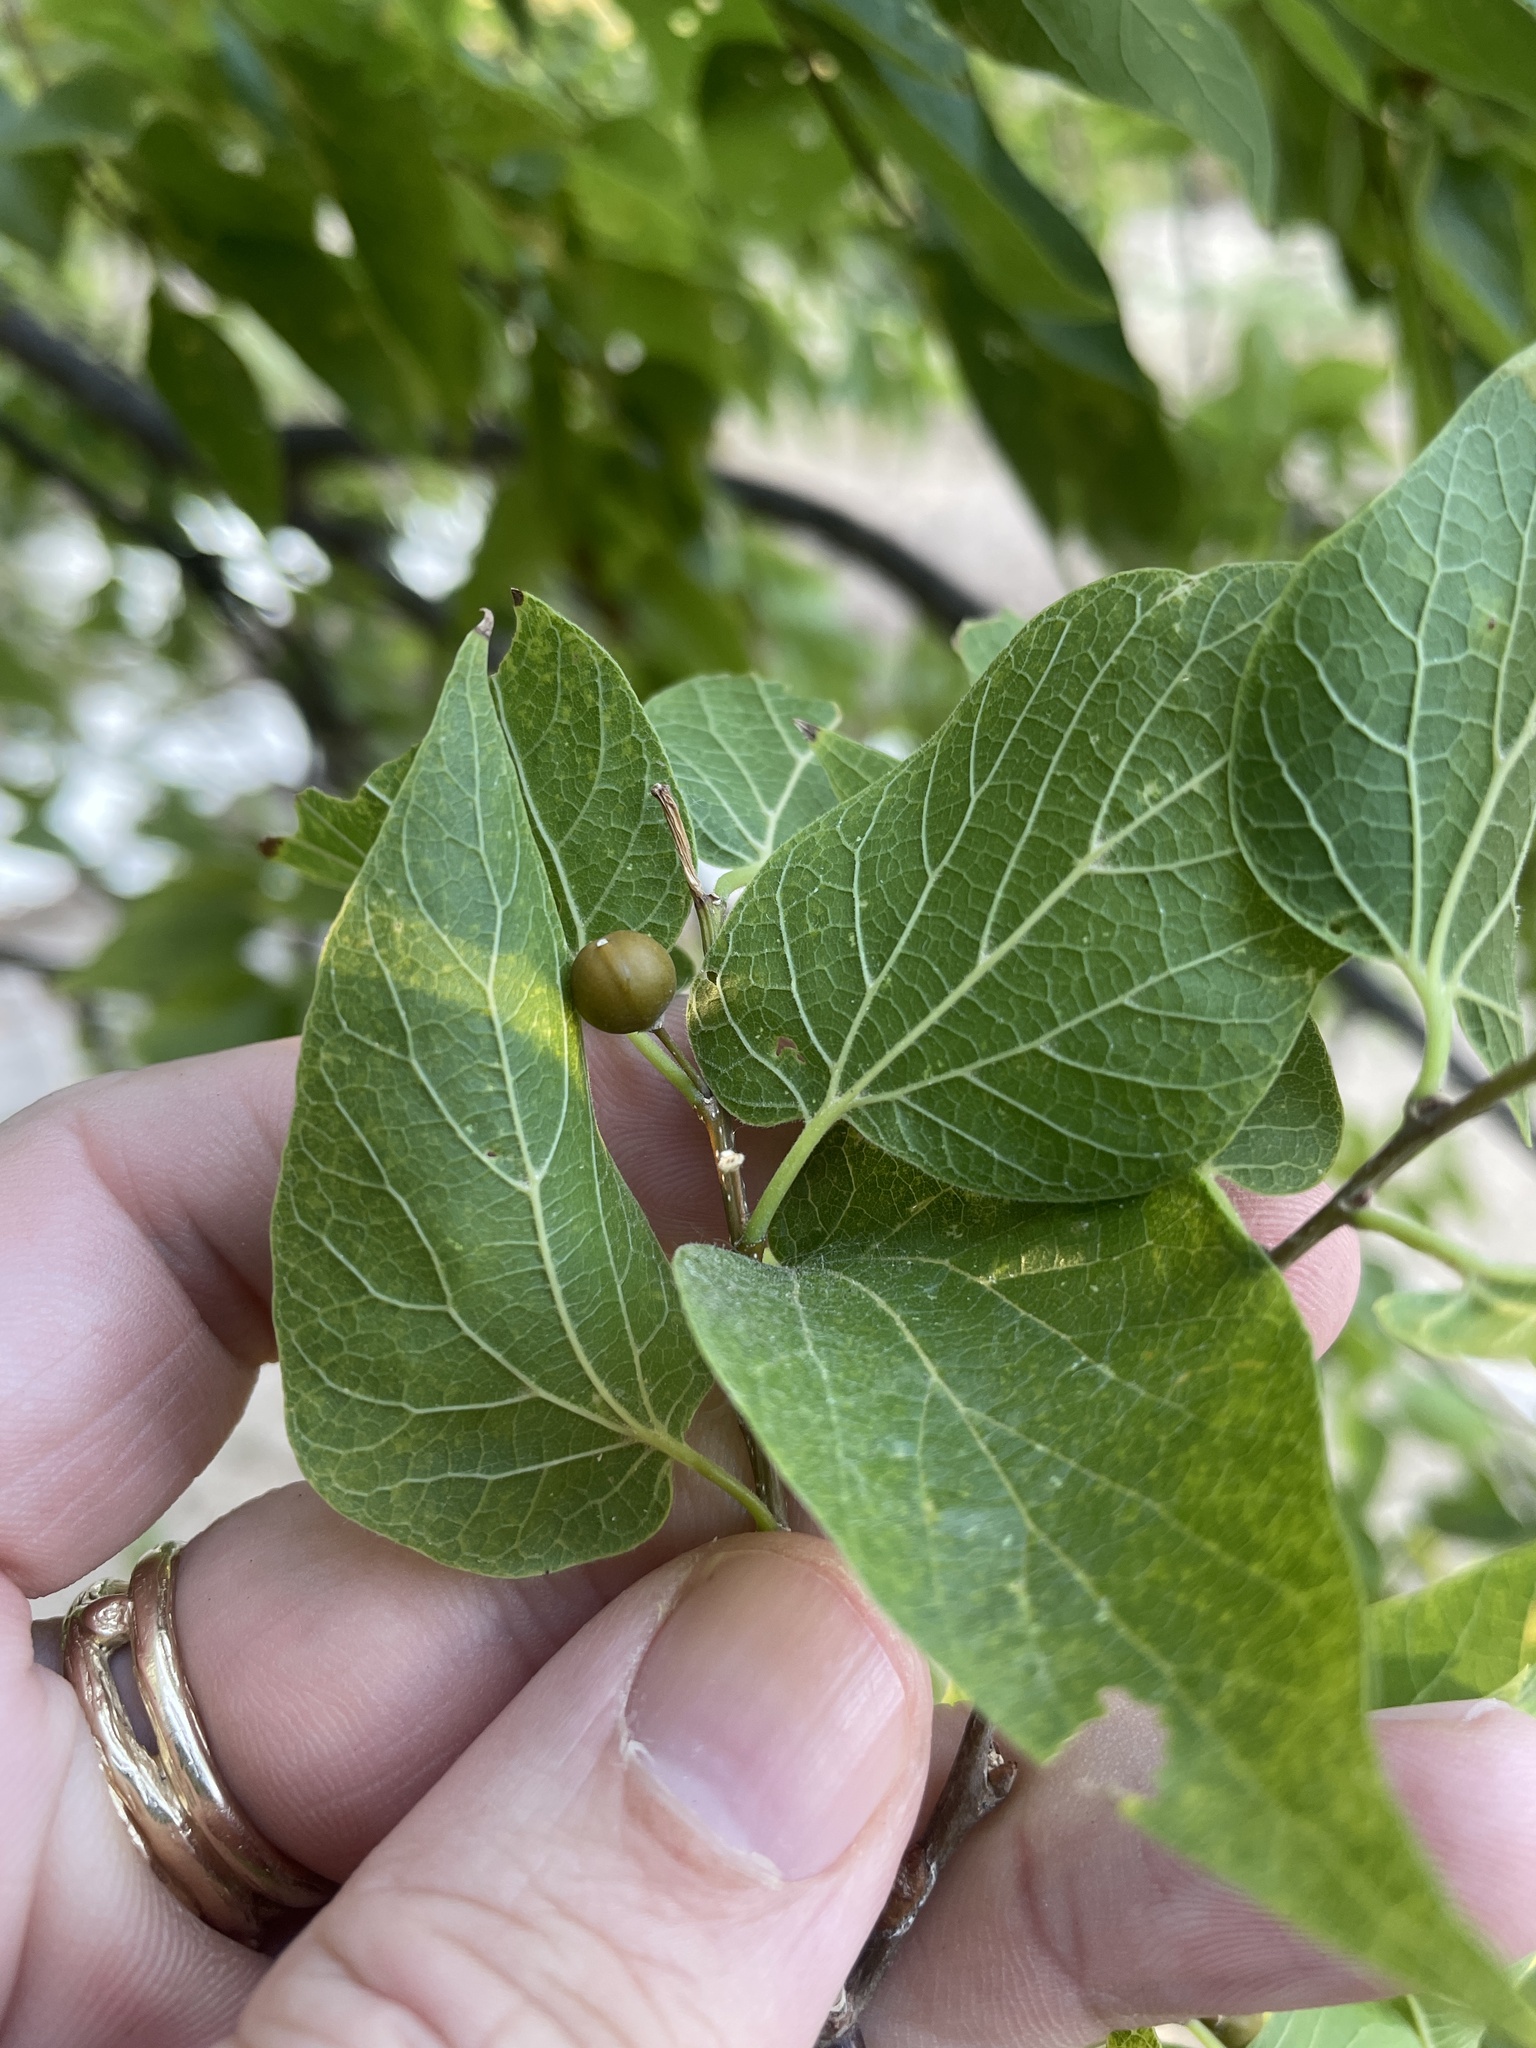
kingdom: Plantae
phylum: Tracheophyta
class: Magnoliopsida
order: Rosales
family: Cannabaceae
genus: Celtis
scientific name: Celtis laevigata
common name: Sugarberry
